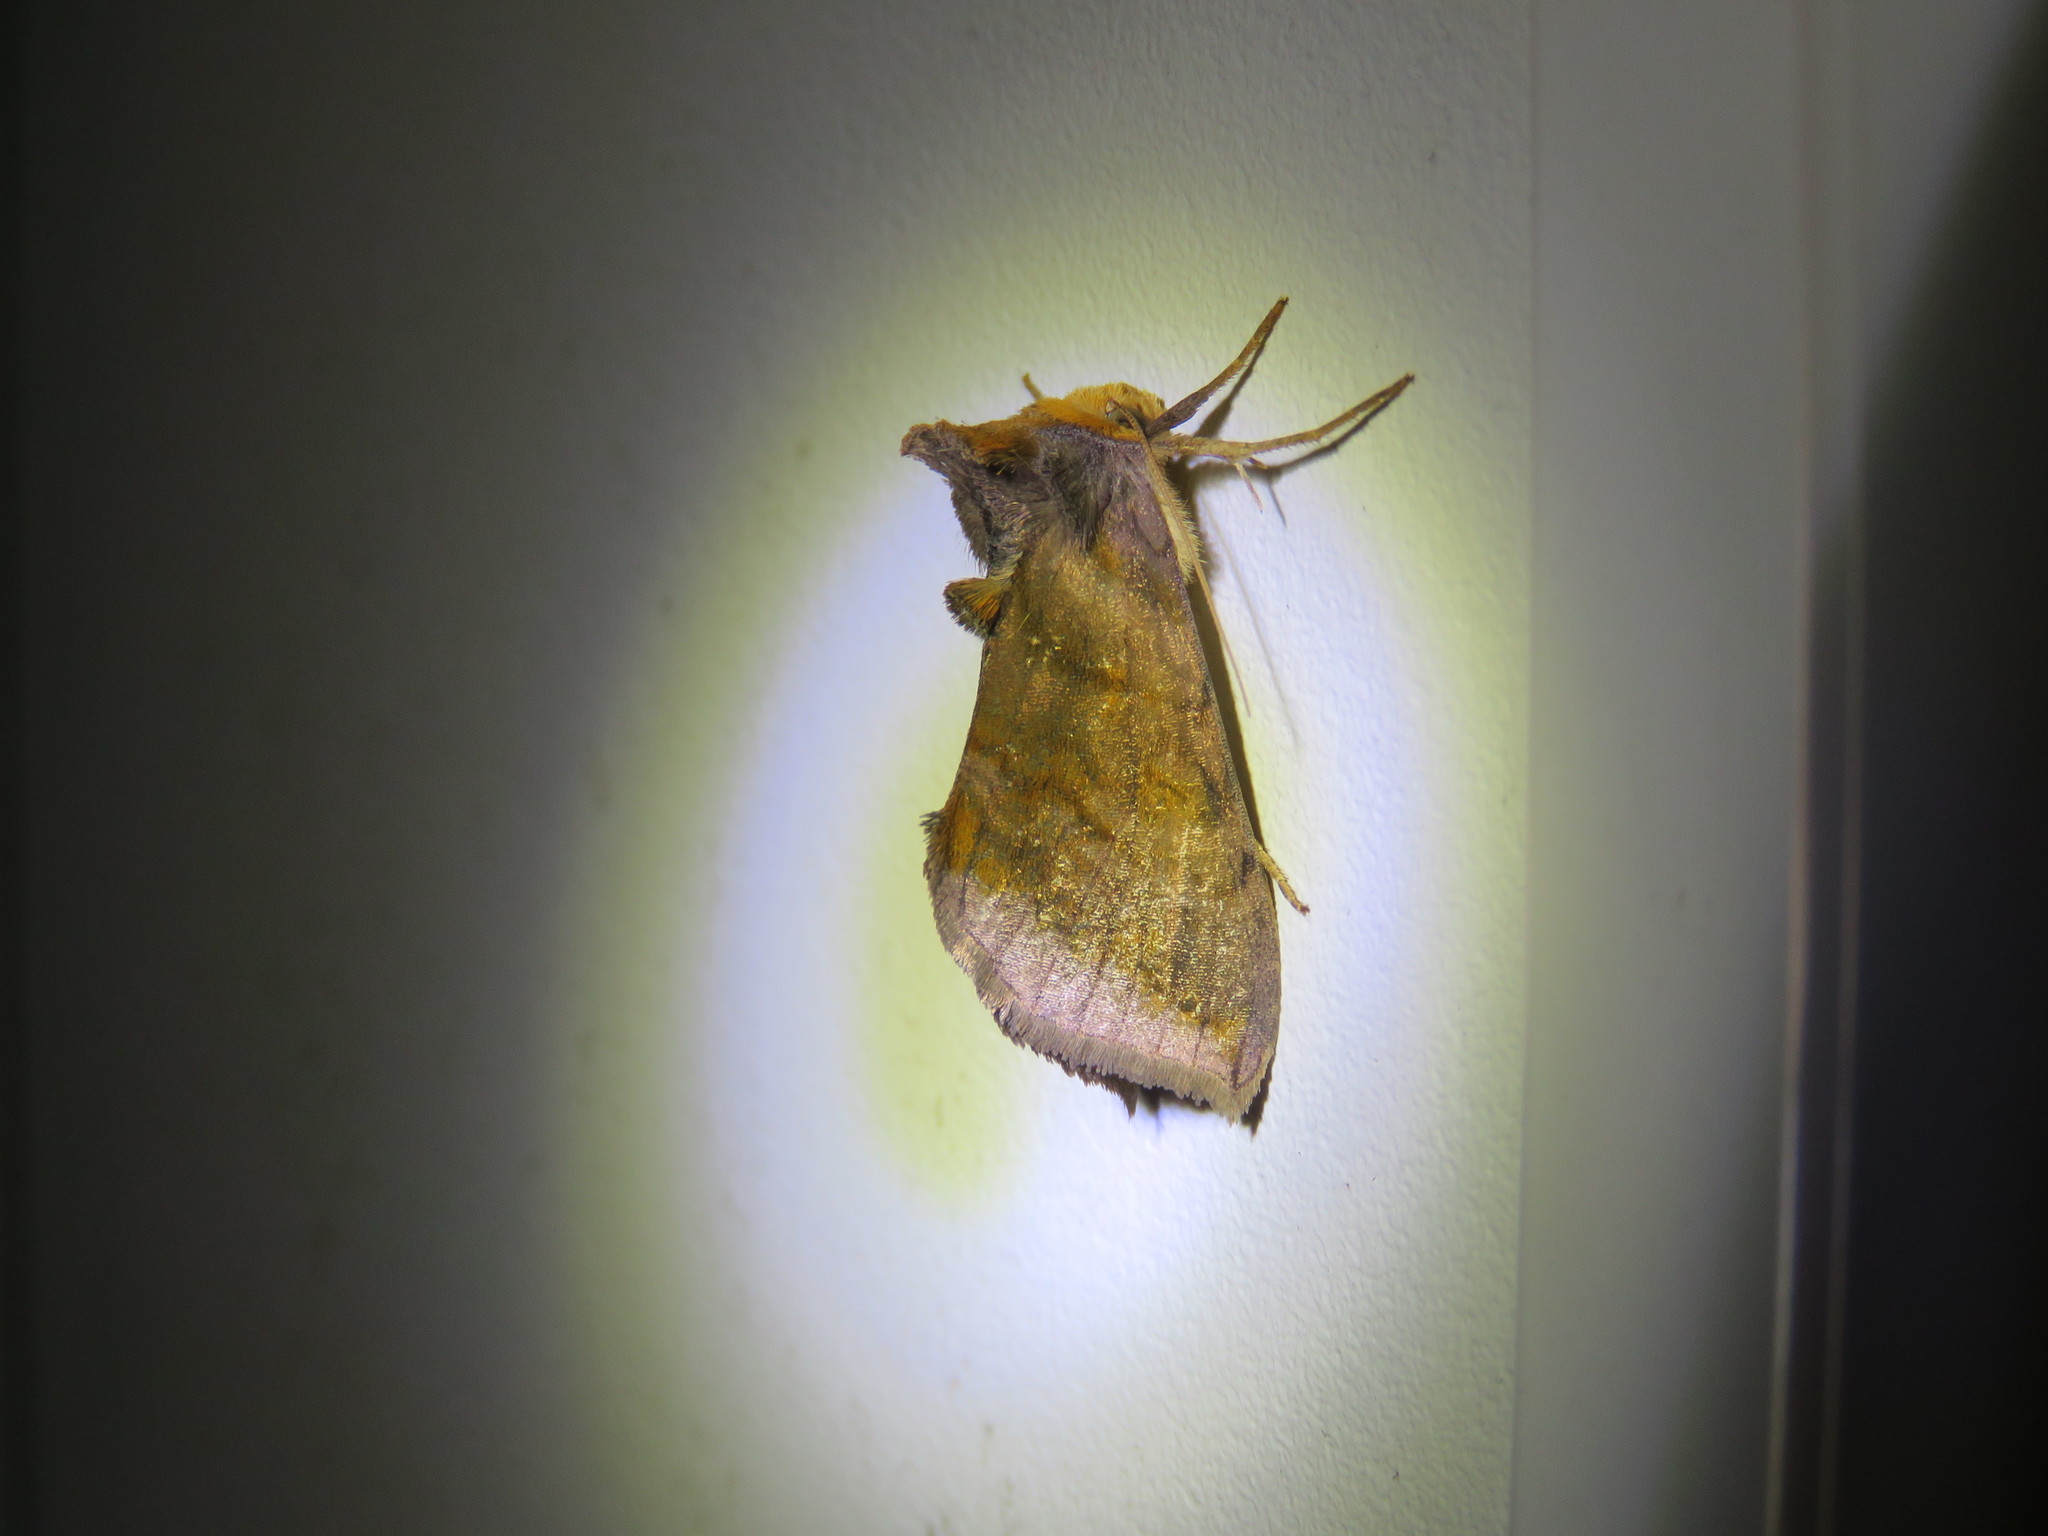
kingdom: Animalia
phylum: Arthropoda
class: Insecta
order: Lepidoptera
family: Noctuidae
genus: Allagrapha
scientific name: Allagrapha aerea
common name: Unspotted looper moth
